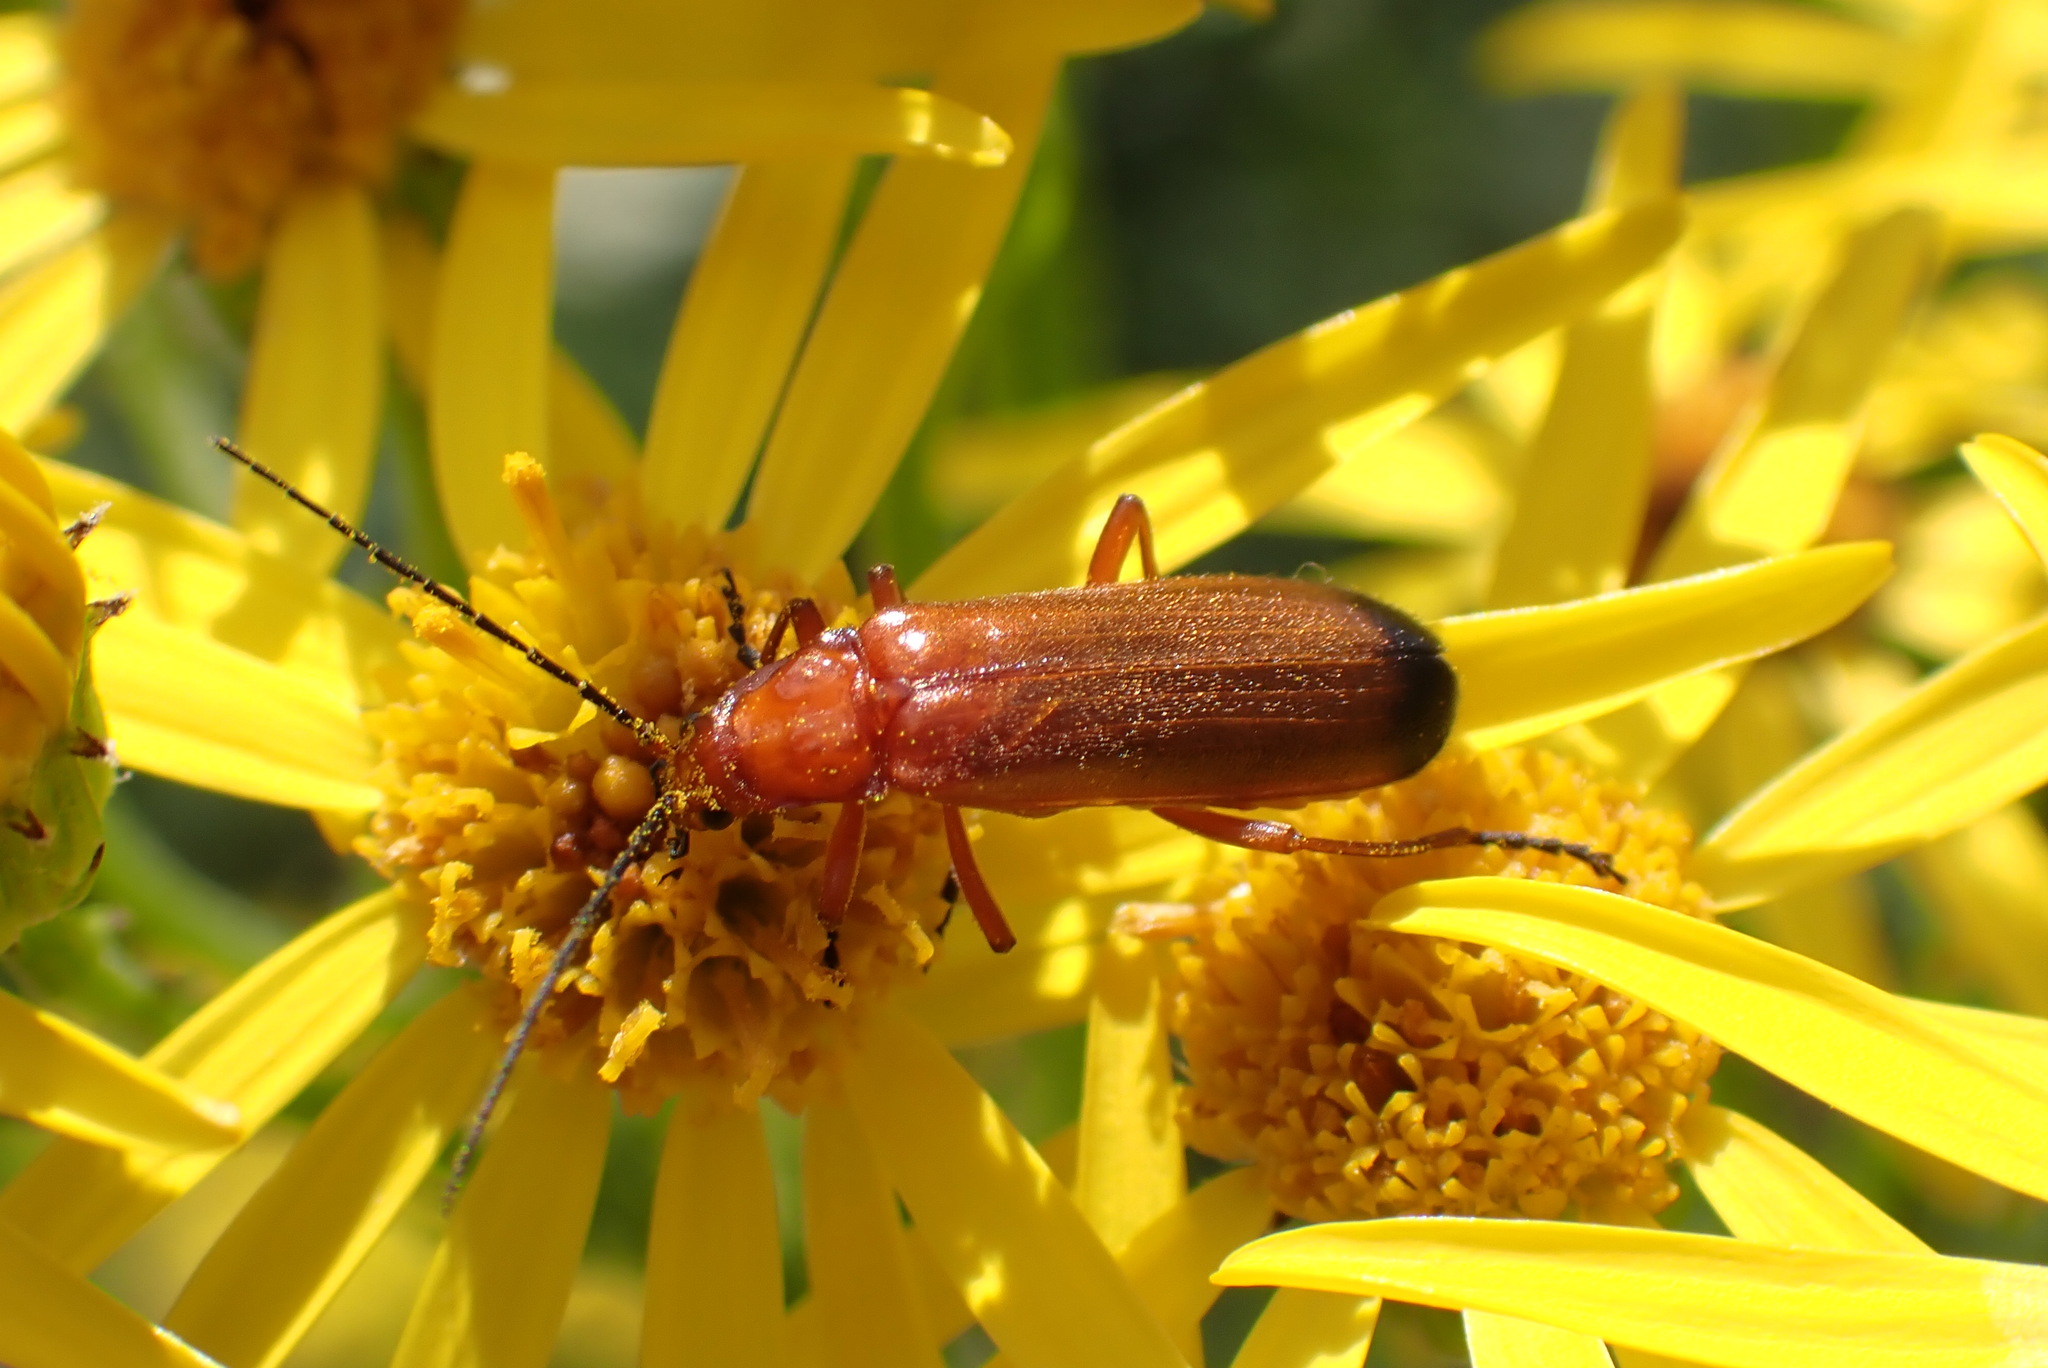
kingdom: Animalia
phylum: Arthropoda
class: Insecta
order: Coleoptera
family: Cantharidae
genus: Rhagonycha
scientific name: Rhagonycha fulva
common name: Common red soldier beetle
